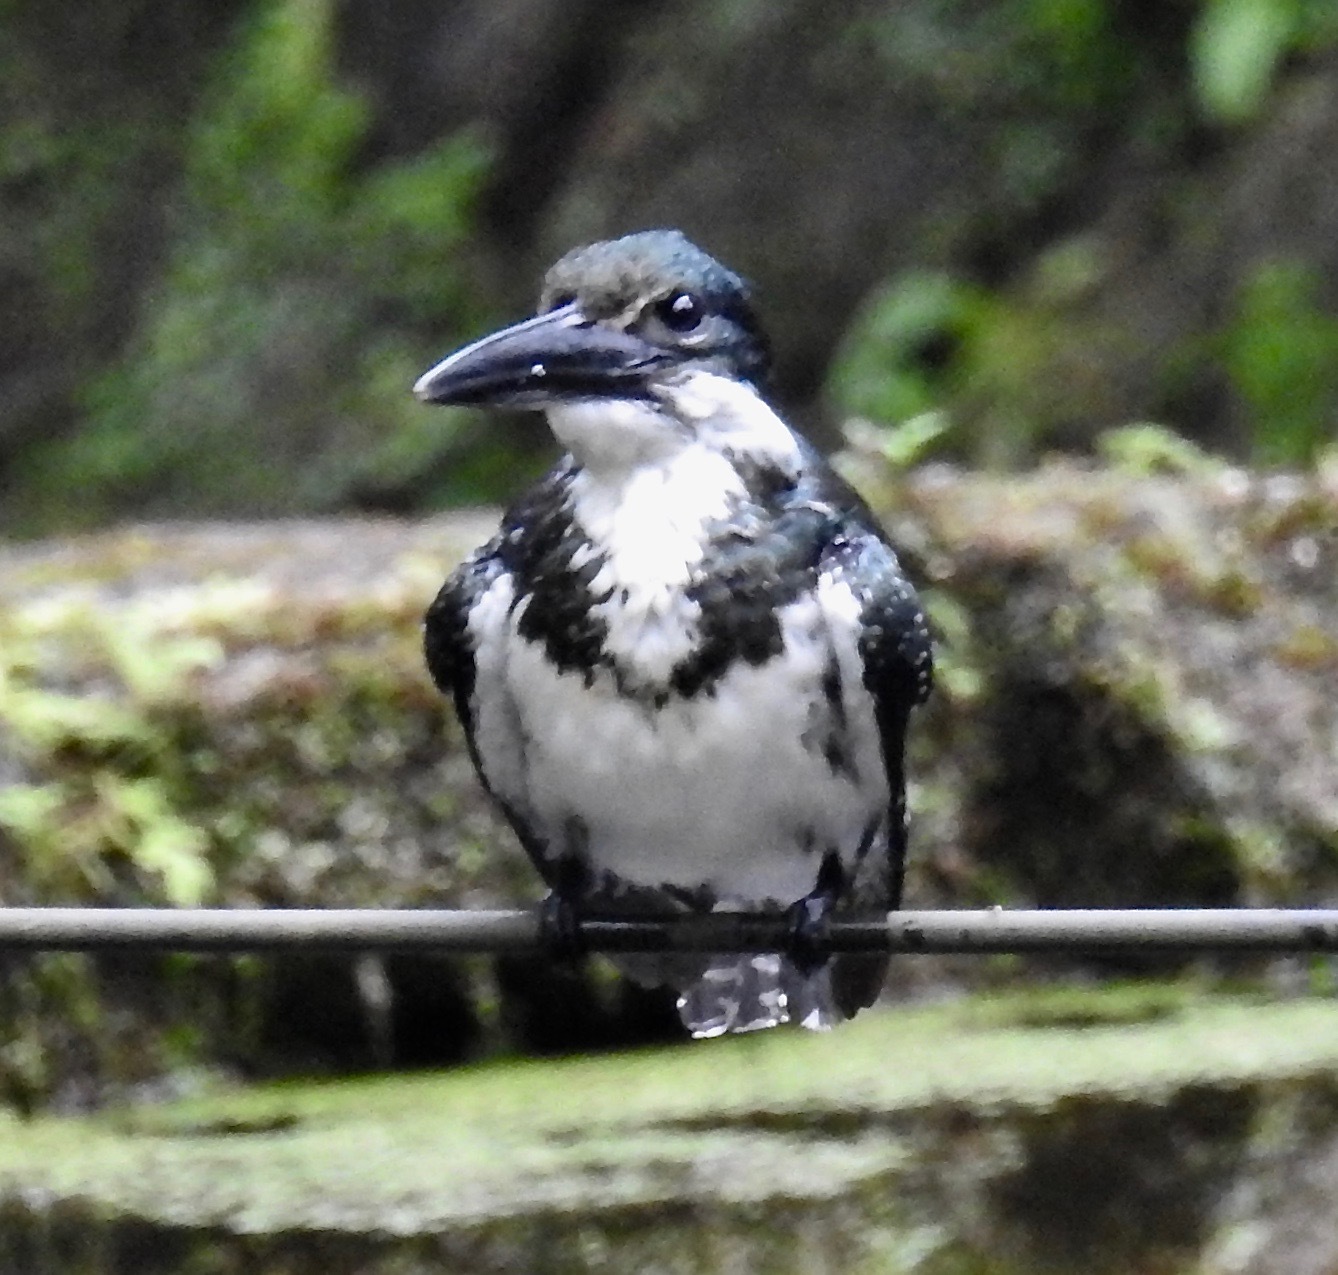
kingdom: Animalia
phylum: Chordata
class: Aves
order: Coraciiformes
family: Alcedinidae
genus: Chloroceryle
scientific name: Chloroceryle amazona
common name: Amazon kingfisher
